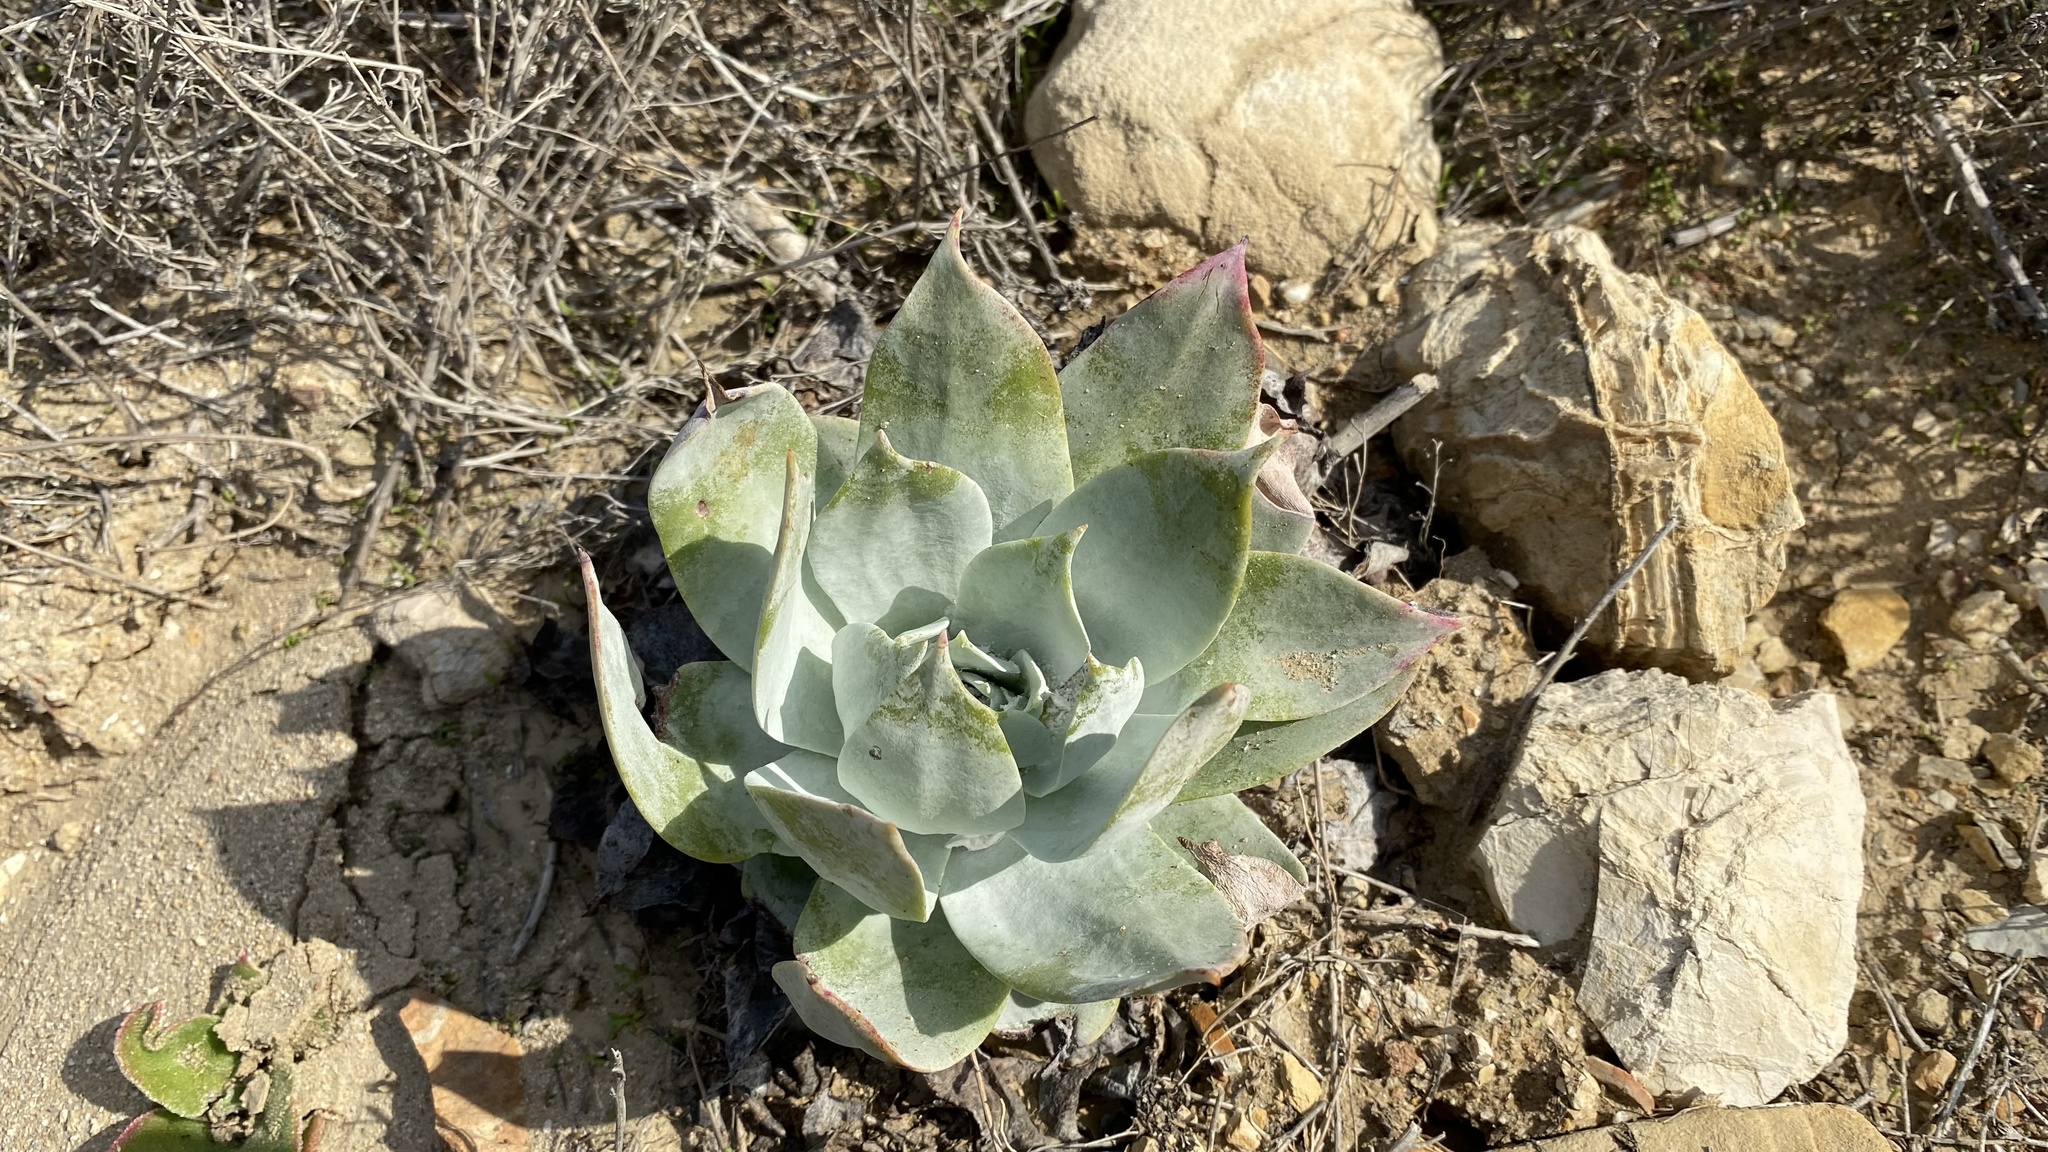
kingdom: Plantae
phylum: Tracheophyta
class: Magnoliopsida
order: Saxifragales
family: Crassulaceae
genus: Dudleya
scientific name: Dudleya pulverulenta
